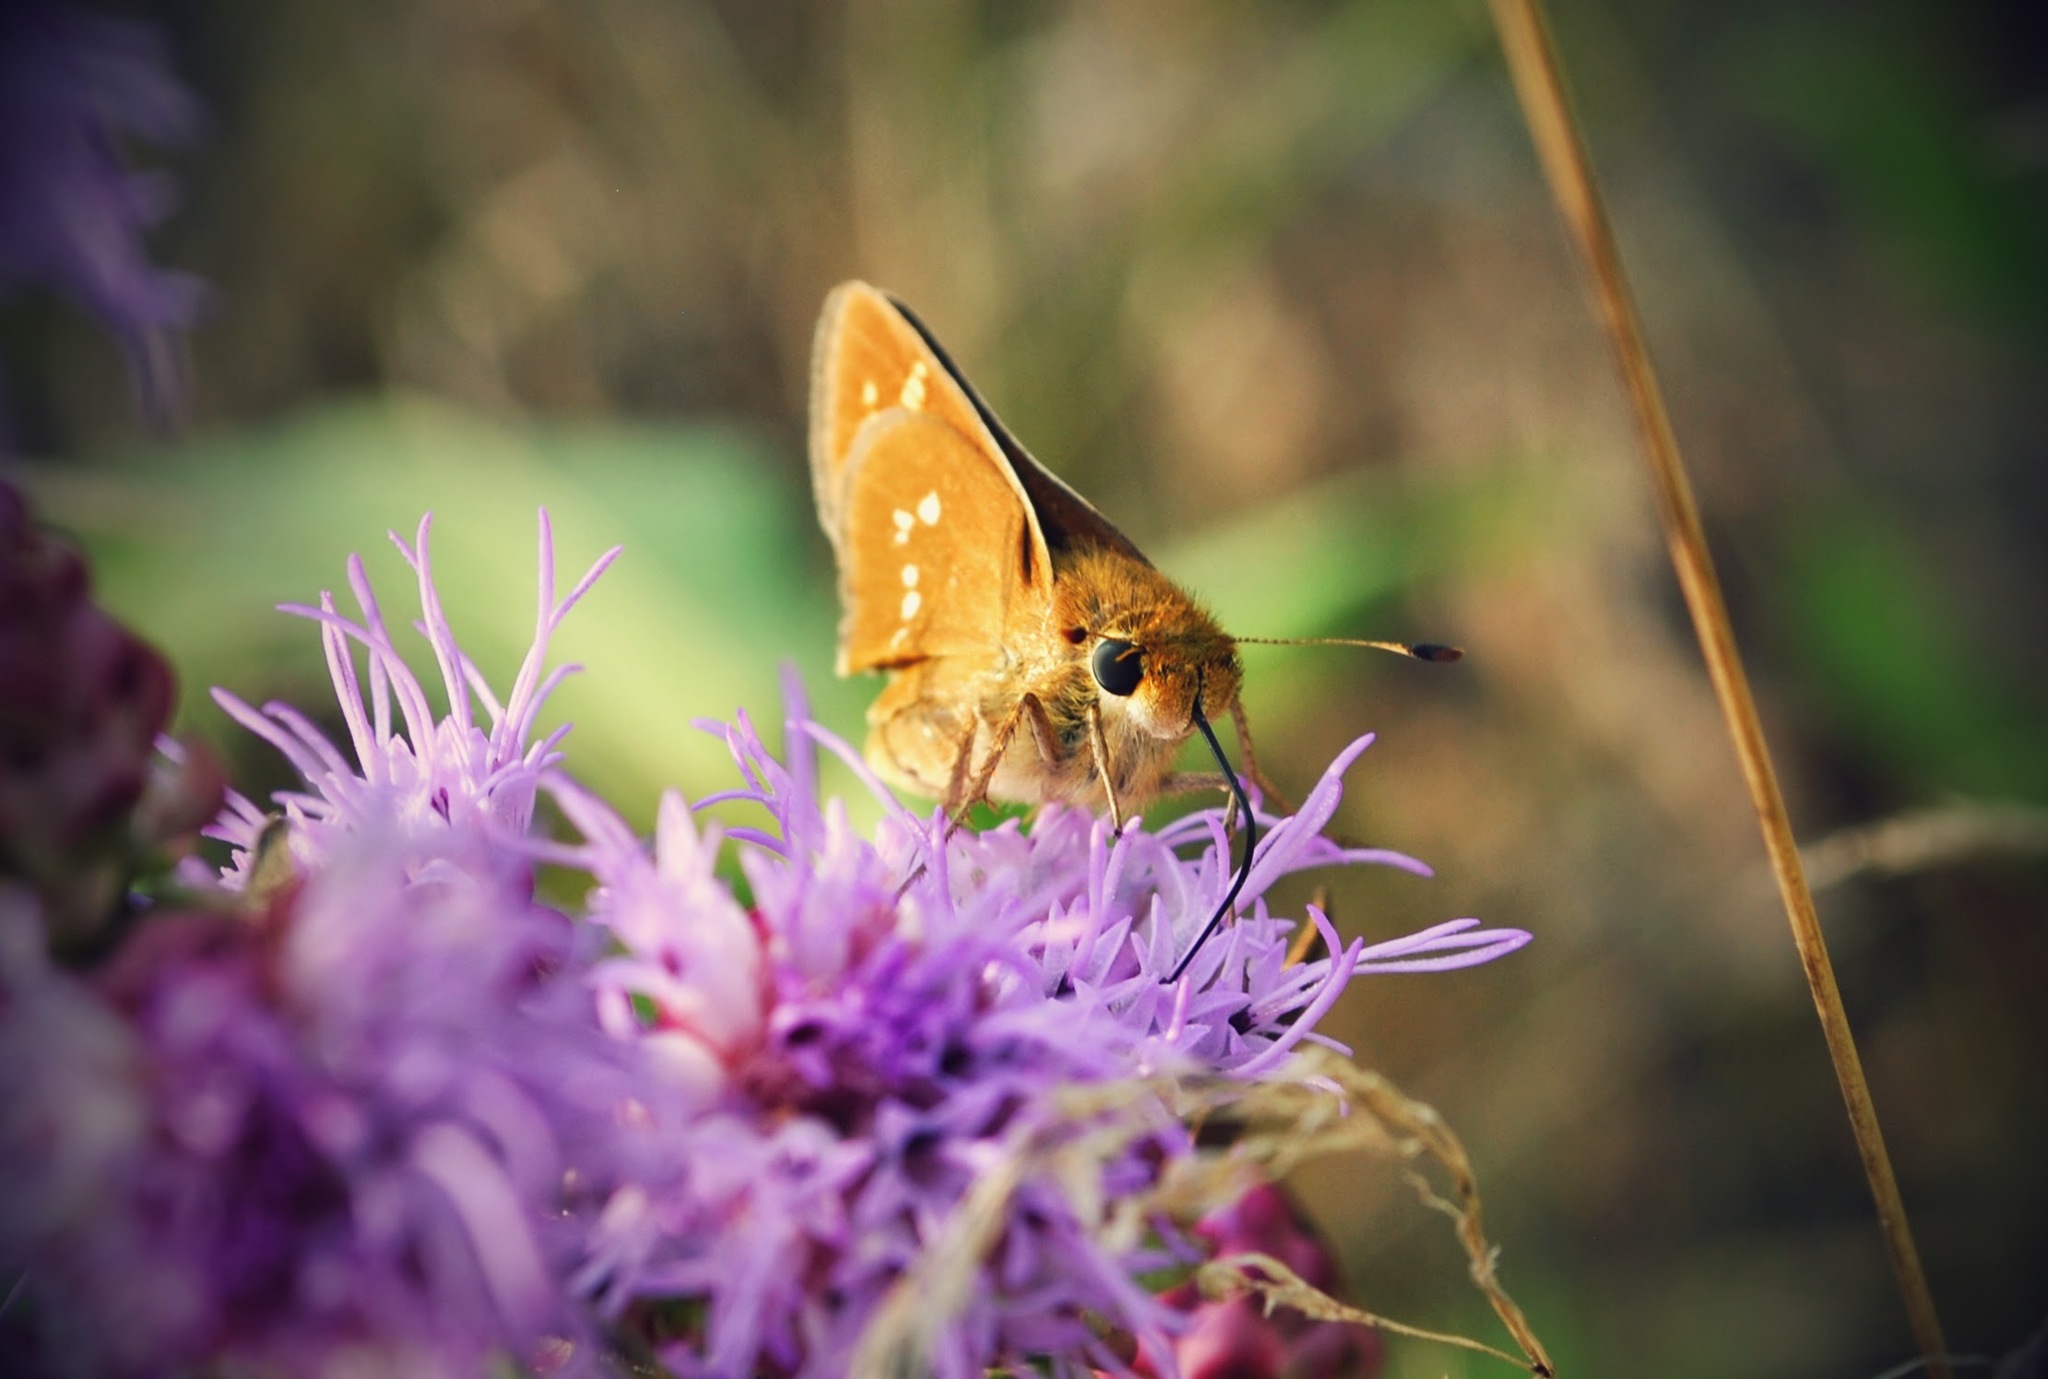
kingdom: Animalia
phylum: Arthropoda
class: Insecta
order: Lepidoptera
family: Hesperiidae
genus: Hesperia
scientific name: Hesperia leonardus
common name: Leonard's skipper
